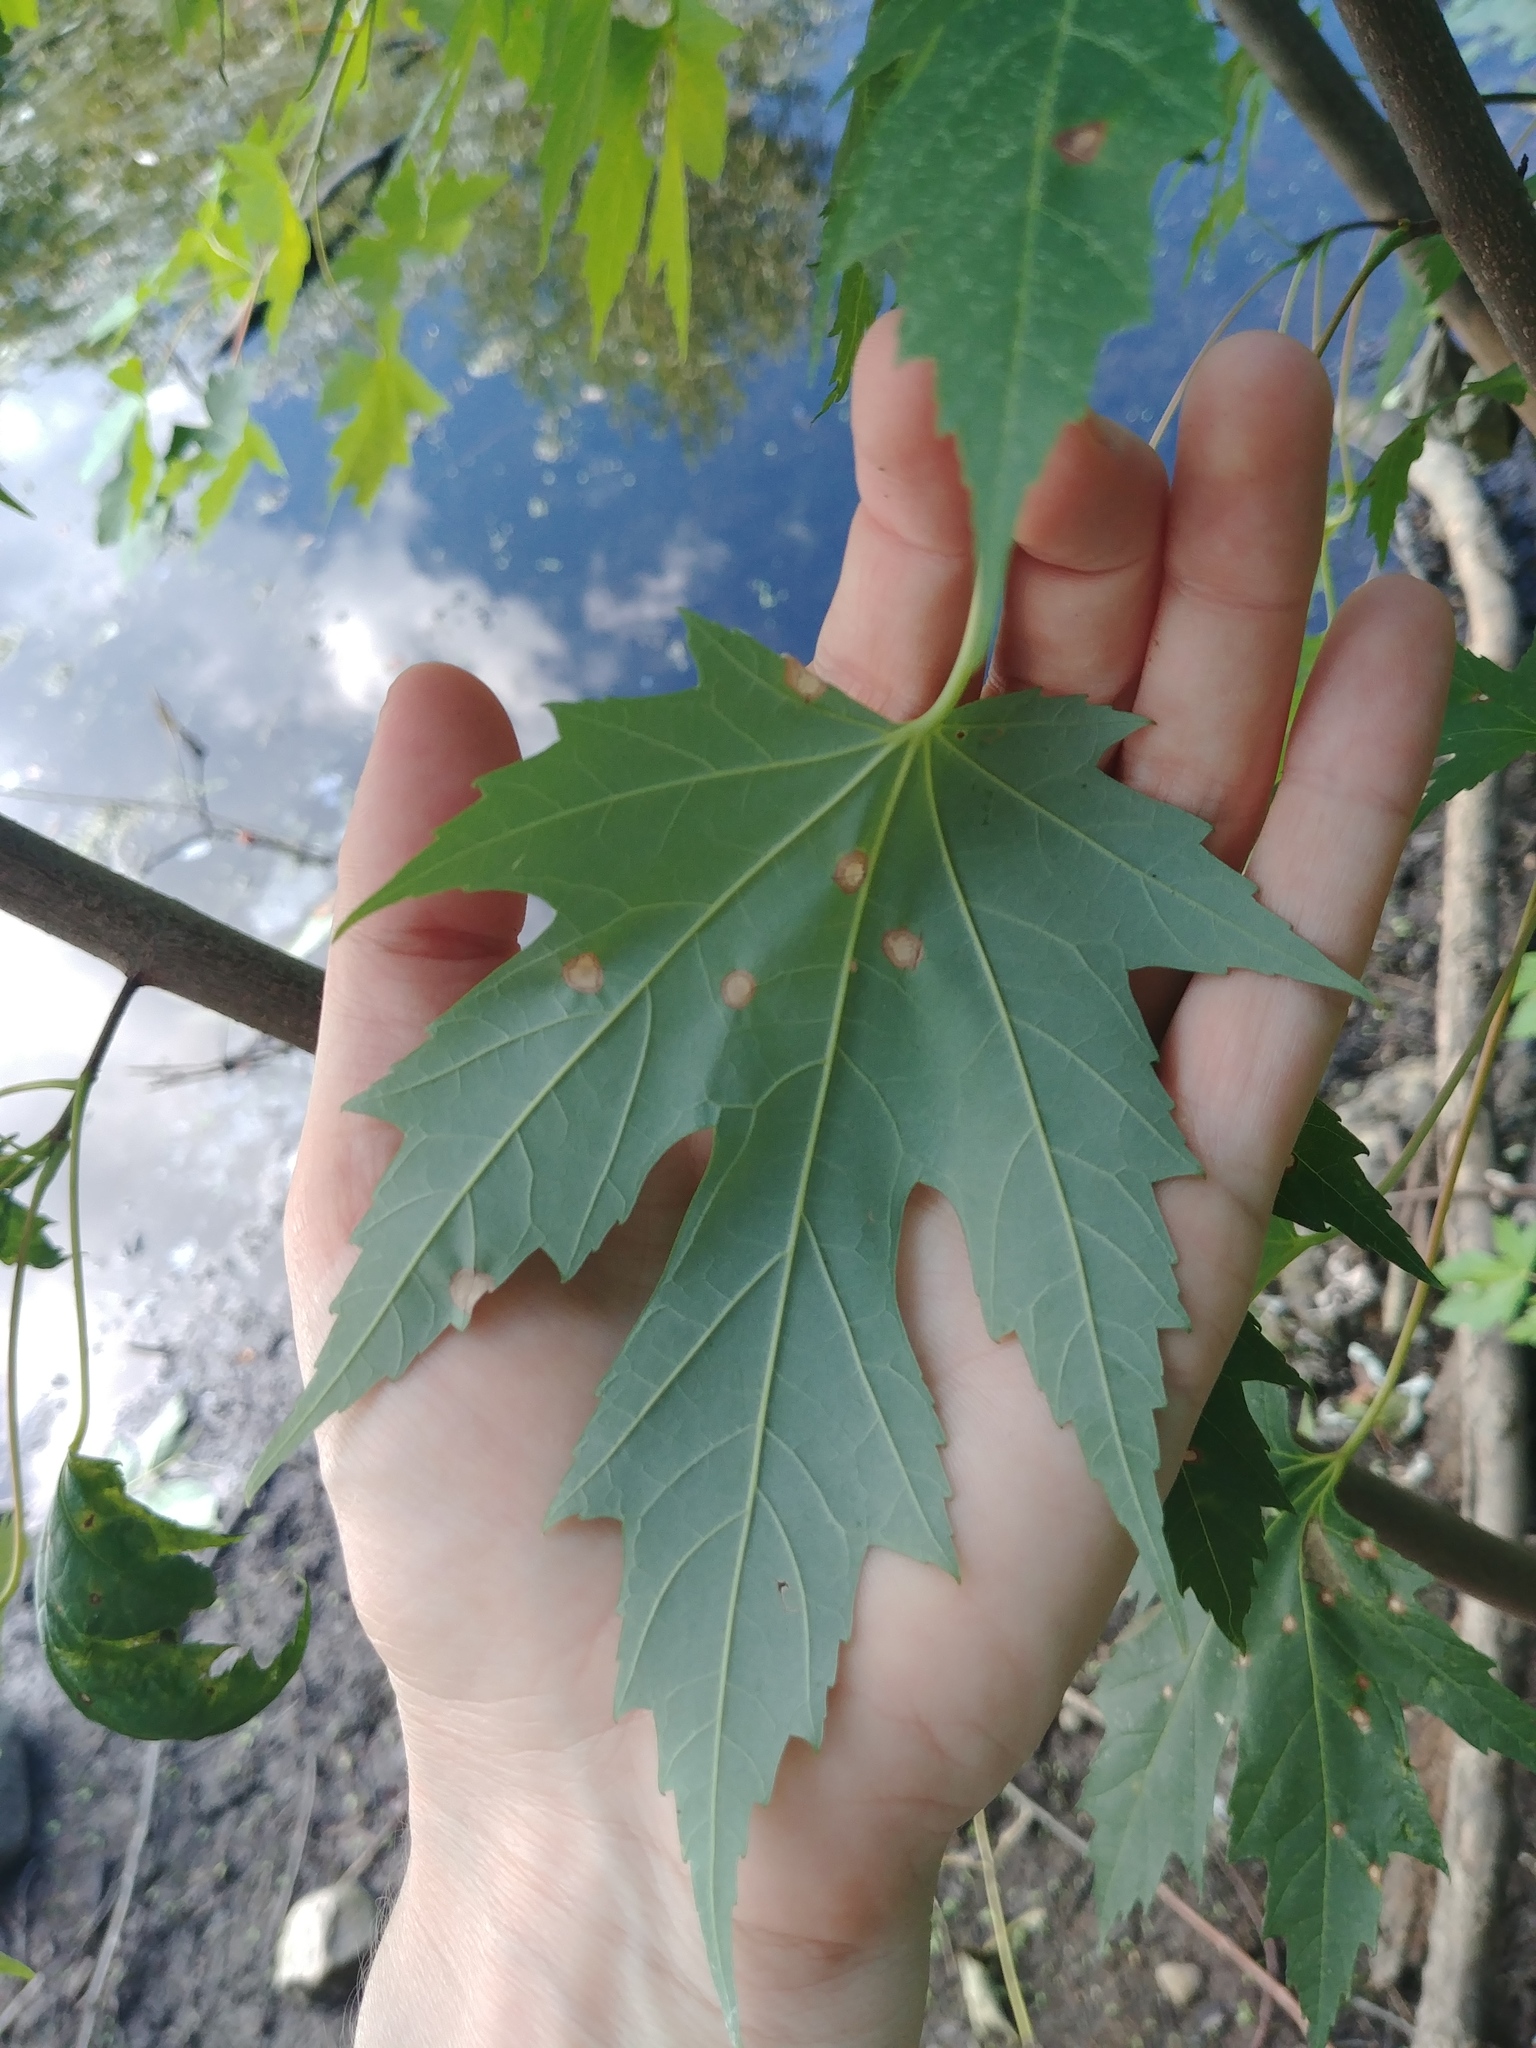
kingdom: Plantae
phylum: Tracheophyta
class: Magnoliopsida
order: Sapindales
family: Sapindaceae
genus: Acer
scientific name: Acer saccharinum
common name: Silver maple
